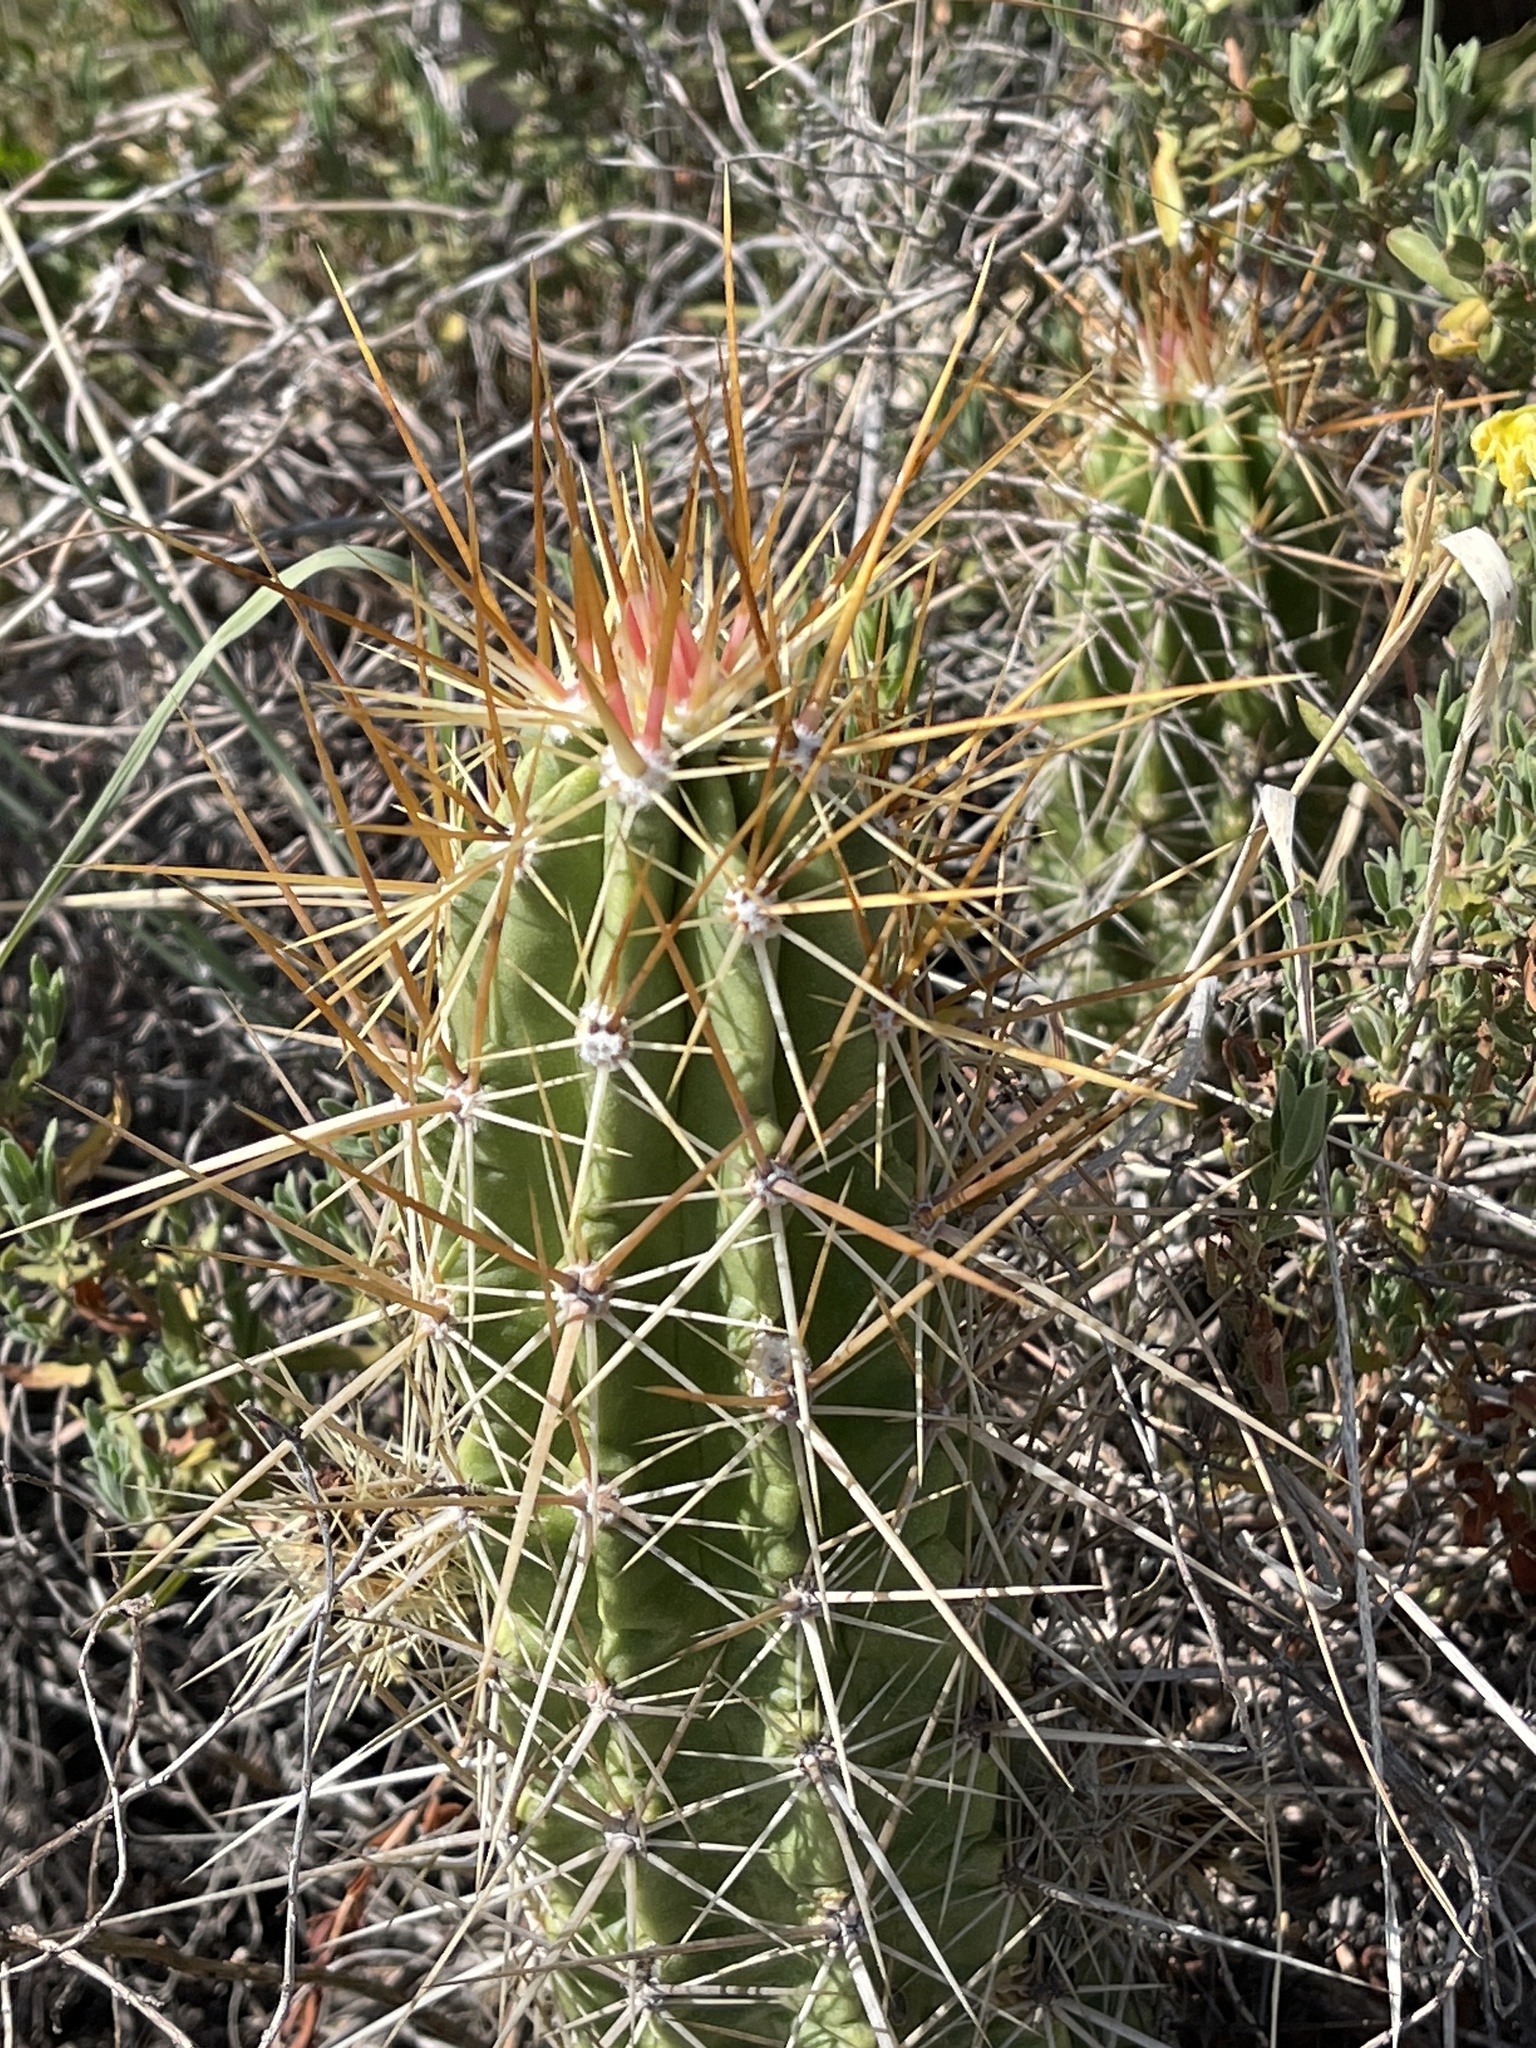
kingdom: Plantae
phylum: Tracheophyta
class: Magnoliopsida
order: Caryophyllales
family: Cactaceae
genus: Echinocereus
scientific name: Echinocereus enneacanthus
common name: Pitaya
